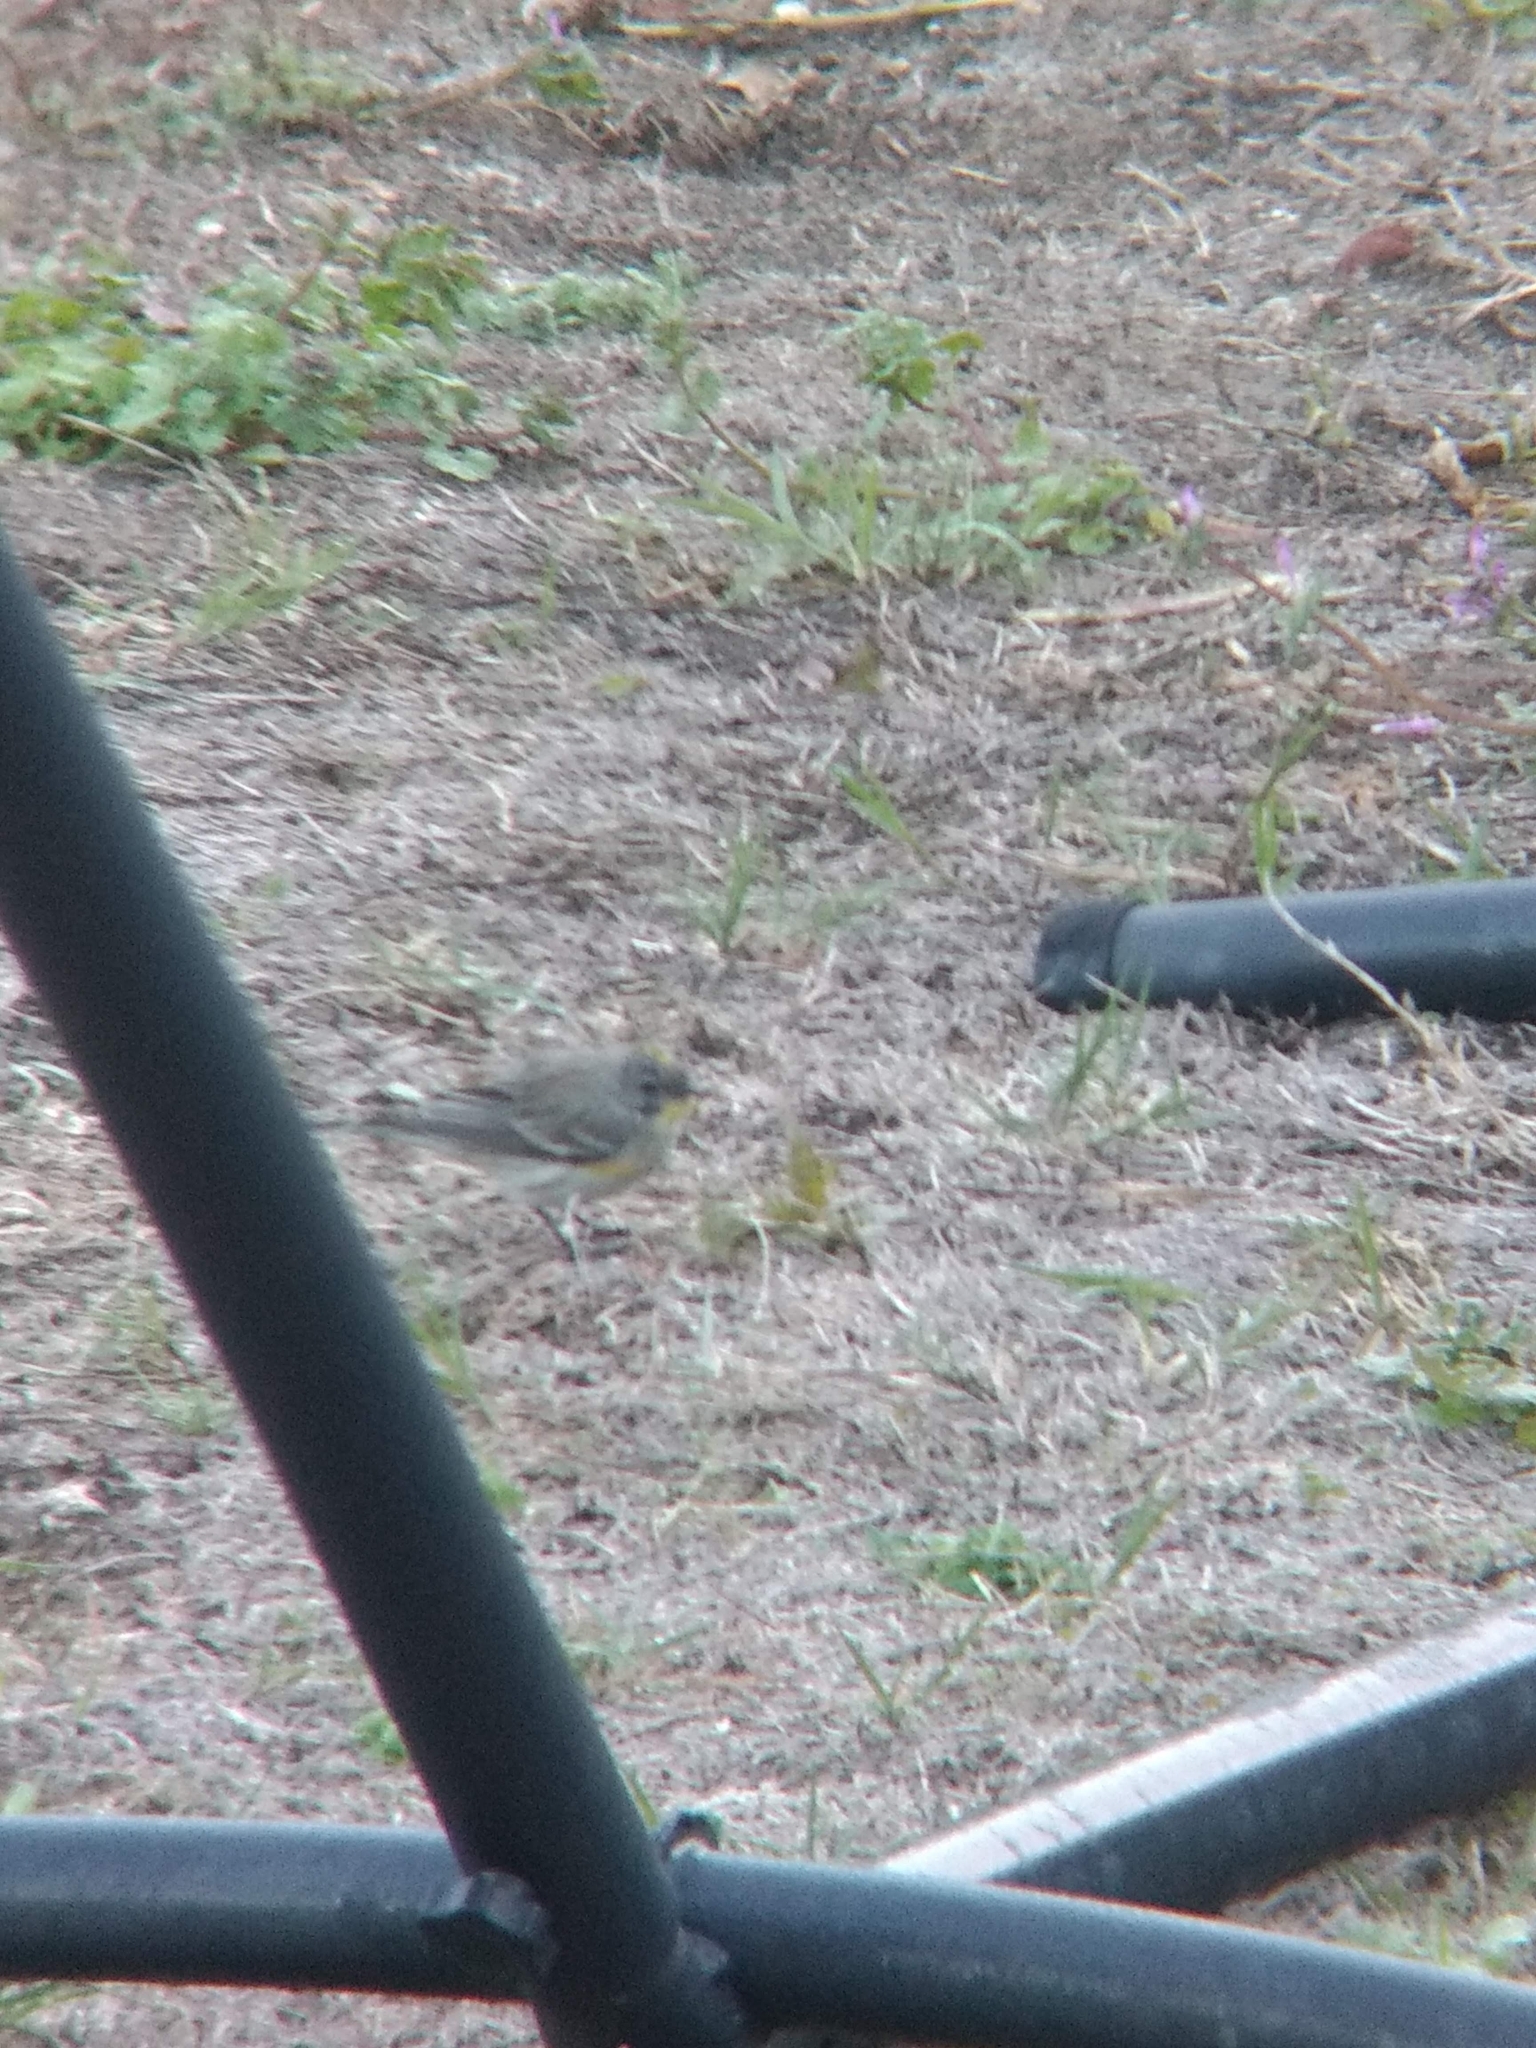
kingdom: Animalia
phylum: Chordata
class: Aves
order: Passeriformes
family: Parulidae
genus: Setophaga
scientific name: Setophaga coronata
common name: Myrtle warbler
